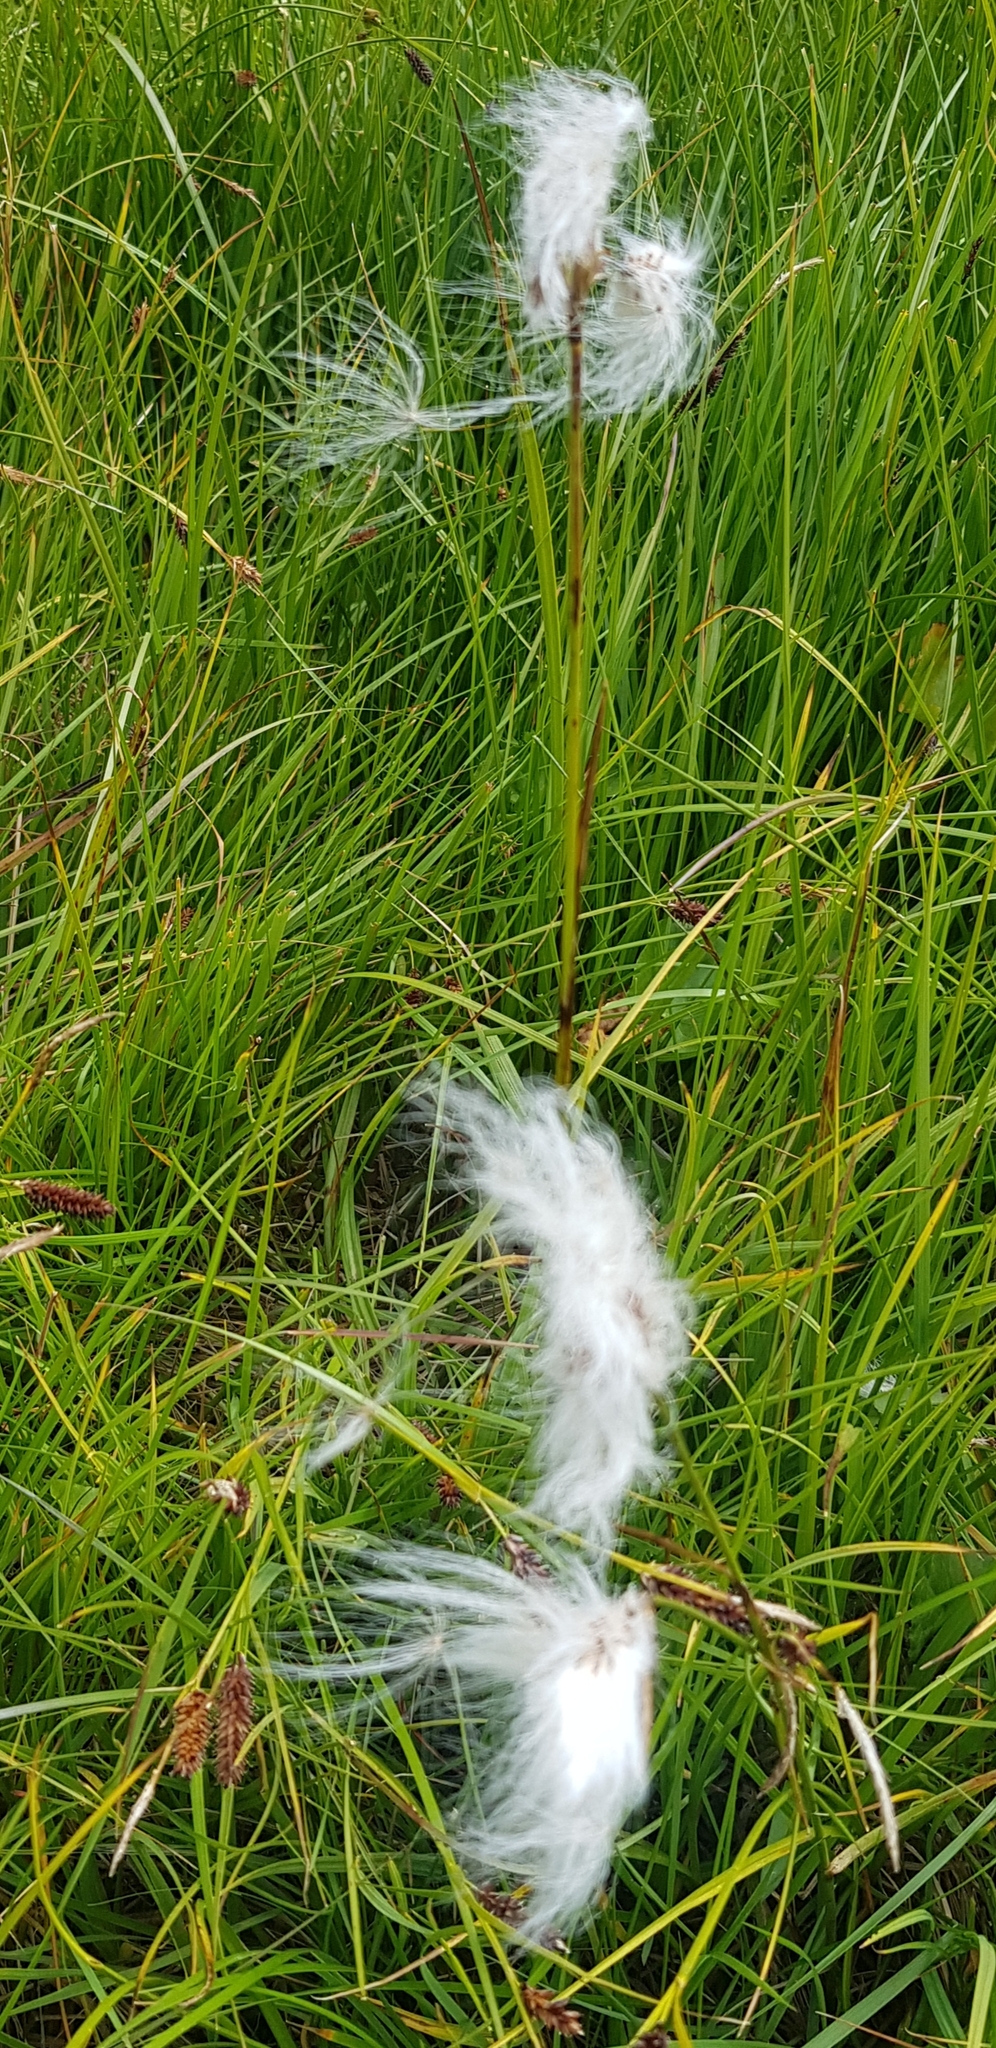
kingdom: Plantae
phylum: Tracheophyta
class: Liliopsida
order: Poales
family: Cyperaceae
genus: Eriophorum
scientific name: Eriophorum angustifolium
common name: Common cottongrass
